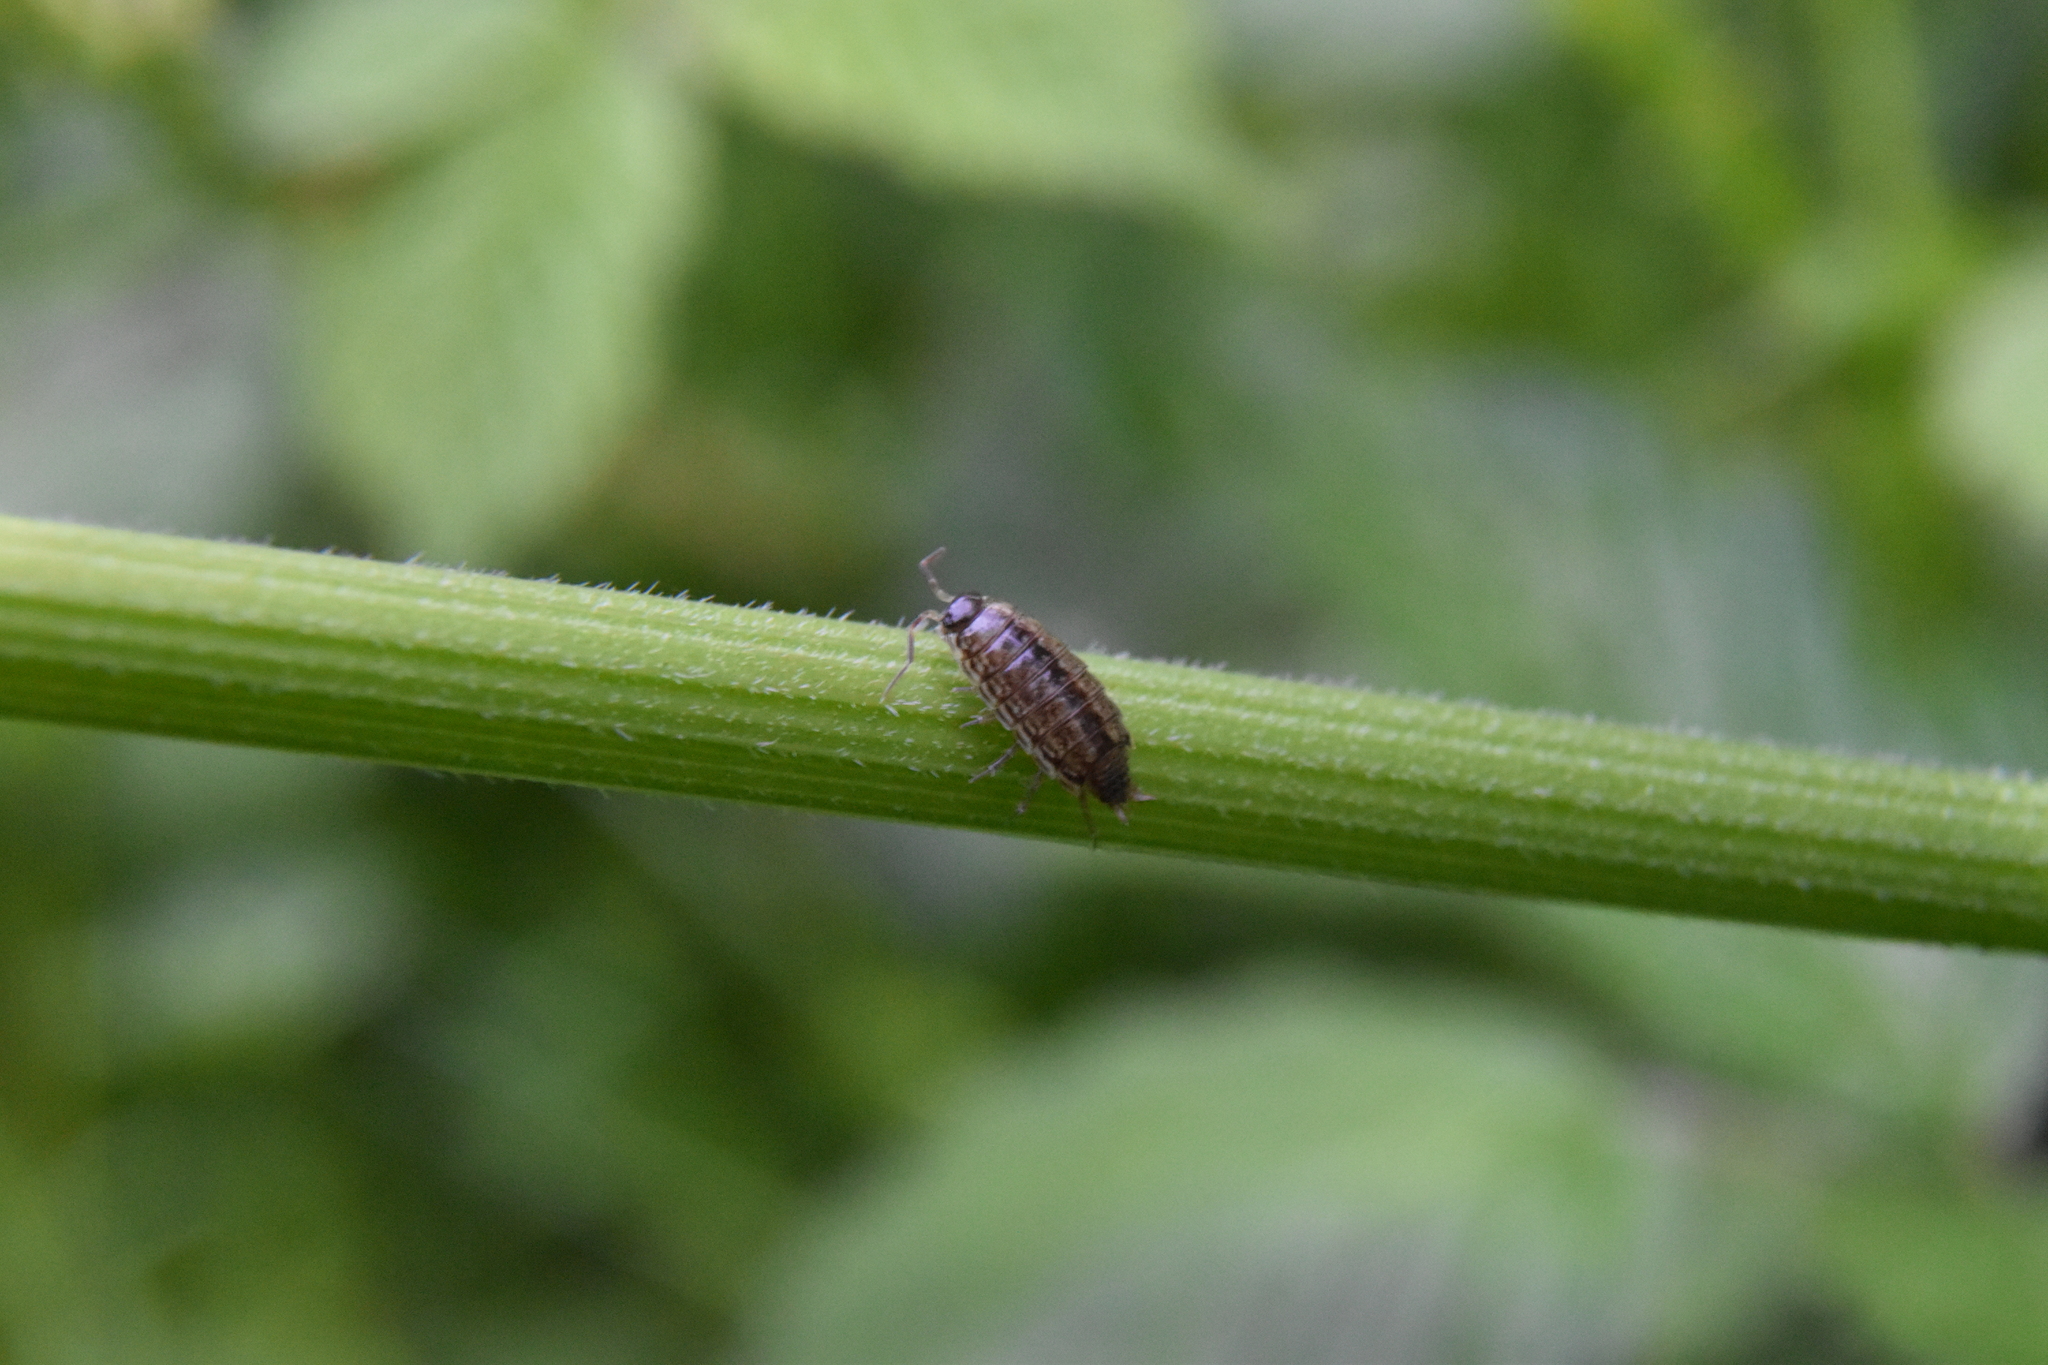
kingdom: Animalia
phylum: Arthropoda
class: Malacostraca
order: Isopoda
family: Philosciidae
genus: Philoscia
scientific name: Philoscia muscorum
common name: Common striped woodlouse
